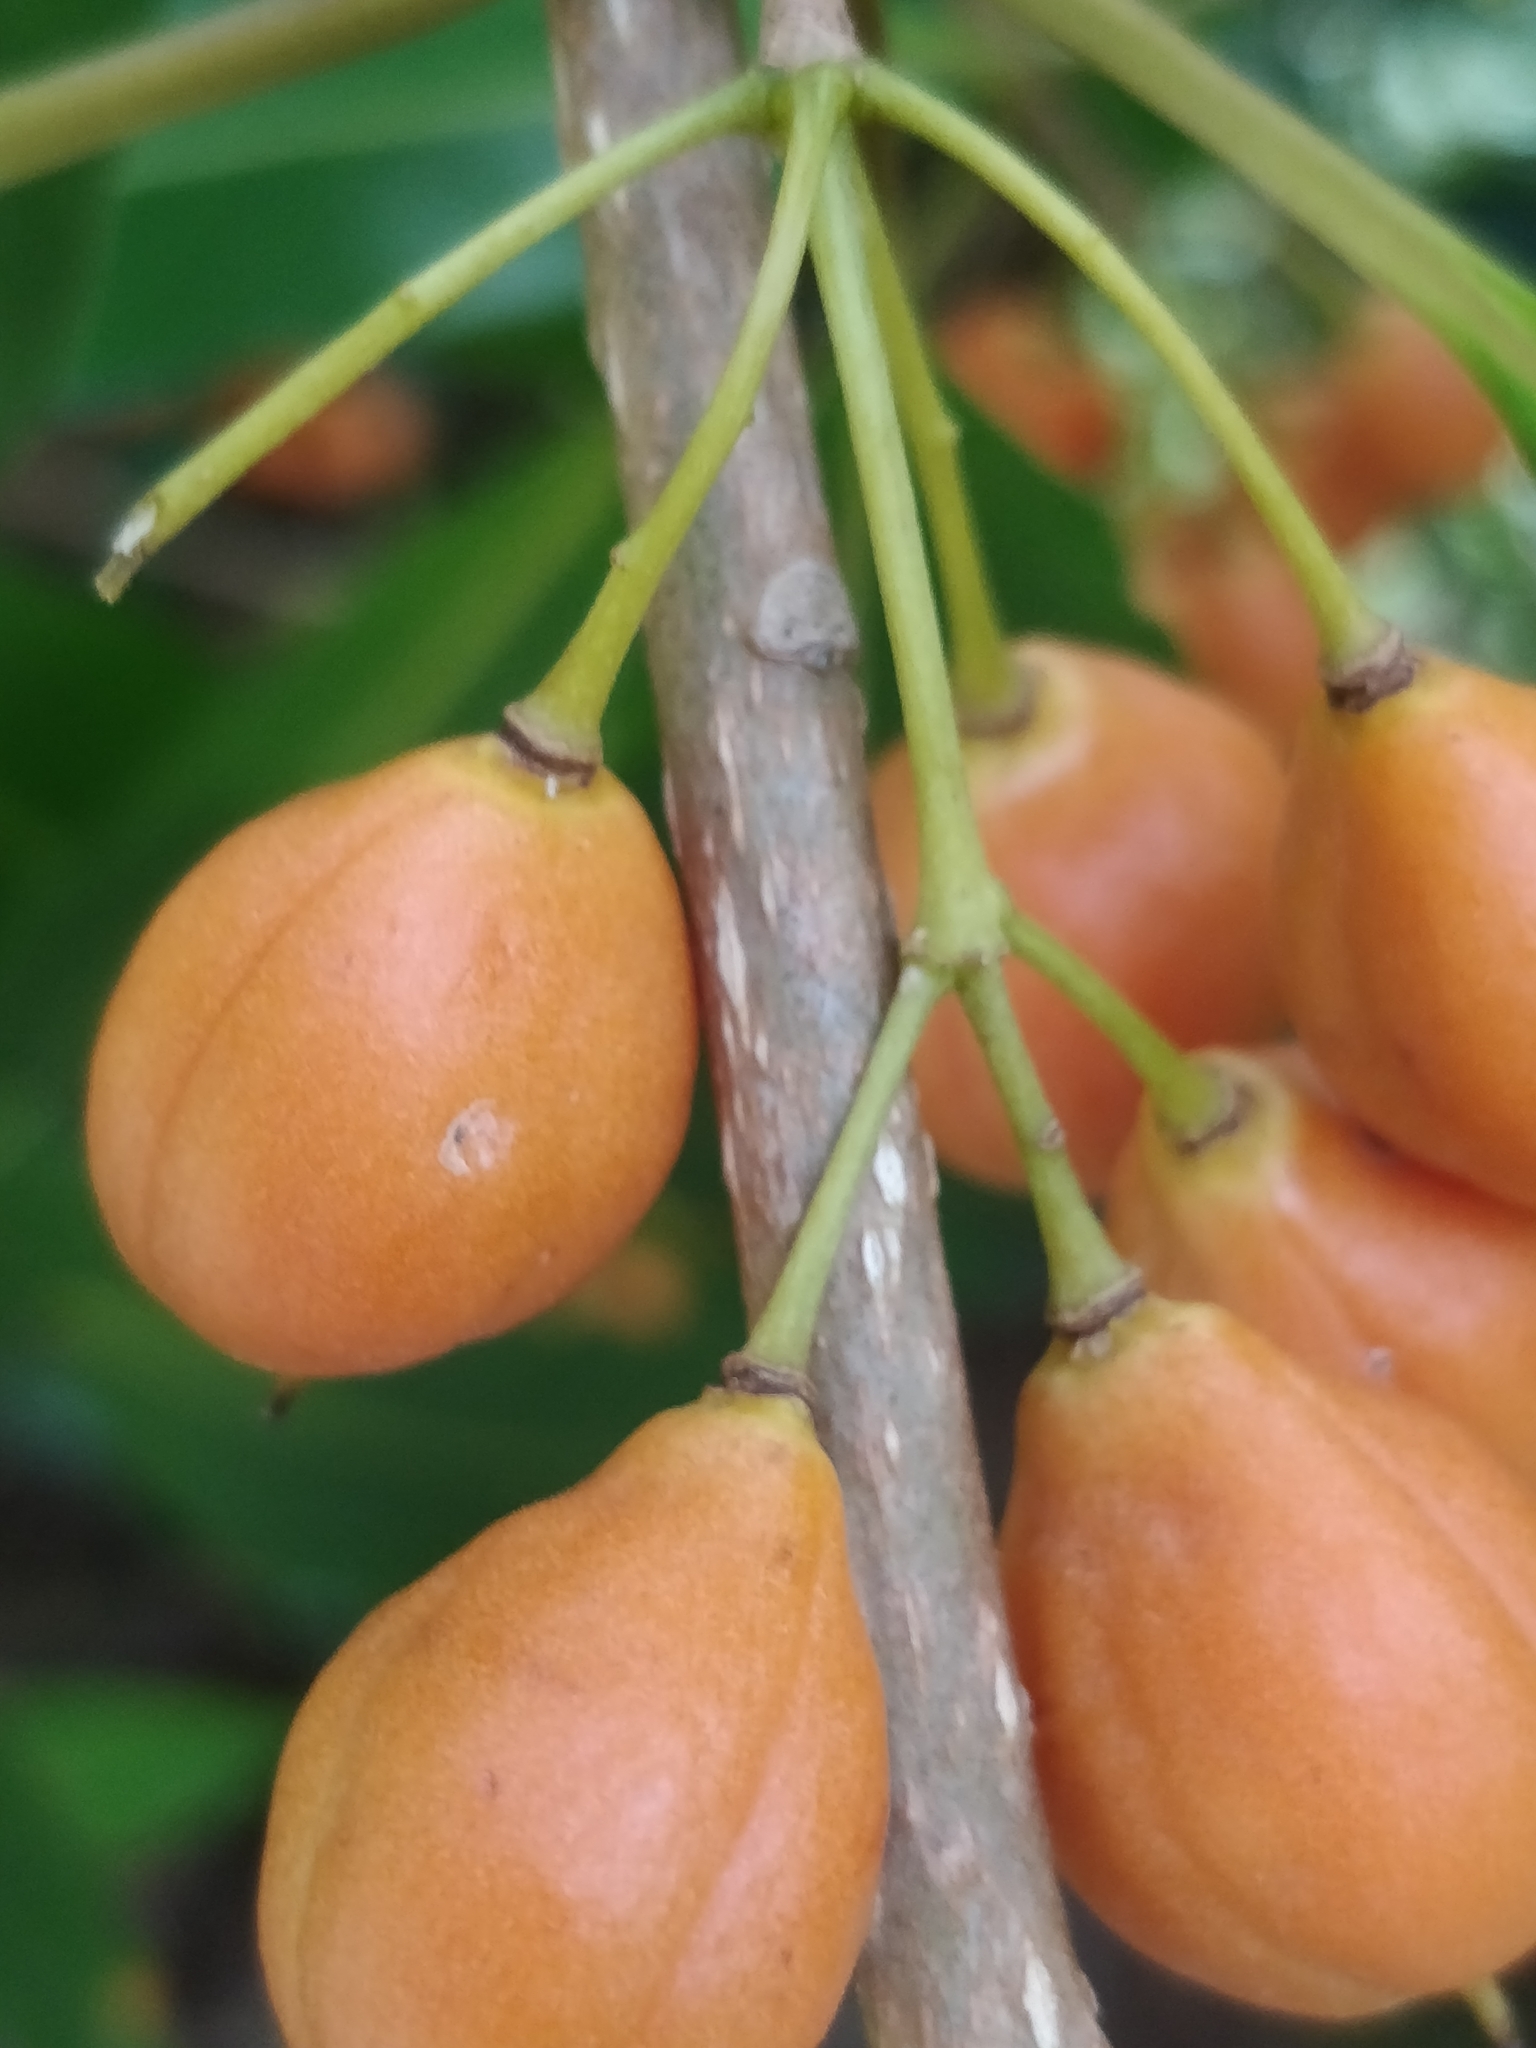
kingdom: Plantae
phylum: Tracheophyta
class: Magnoliopsida
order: Apiales
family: Pittosporaceae
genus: Pittosporum
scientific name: Pittosporum undulatum
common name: Australian cheesewood
